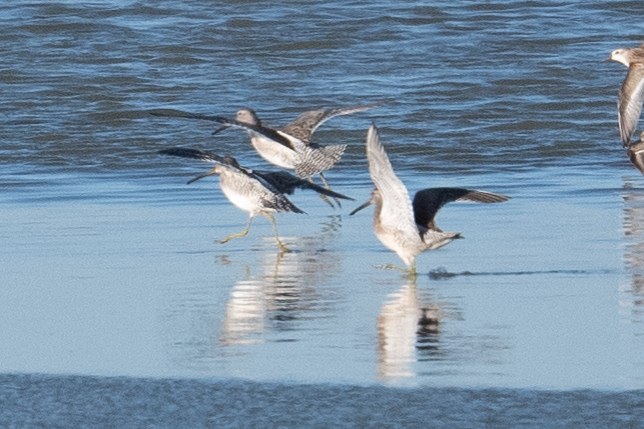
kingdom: Animalia
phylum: Chordata
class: Aves
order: Charadriiformes
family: Scolopacidae
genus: Limnodromus
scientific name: Limnodromus scolopaceus
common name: Long-billed dowitcher
